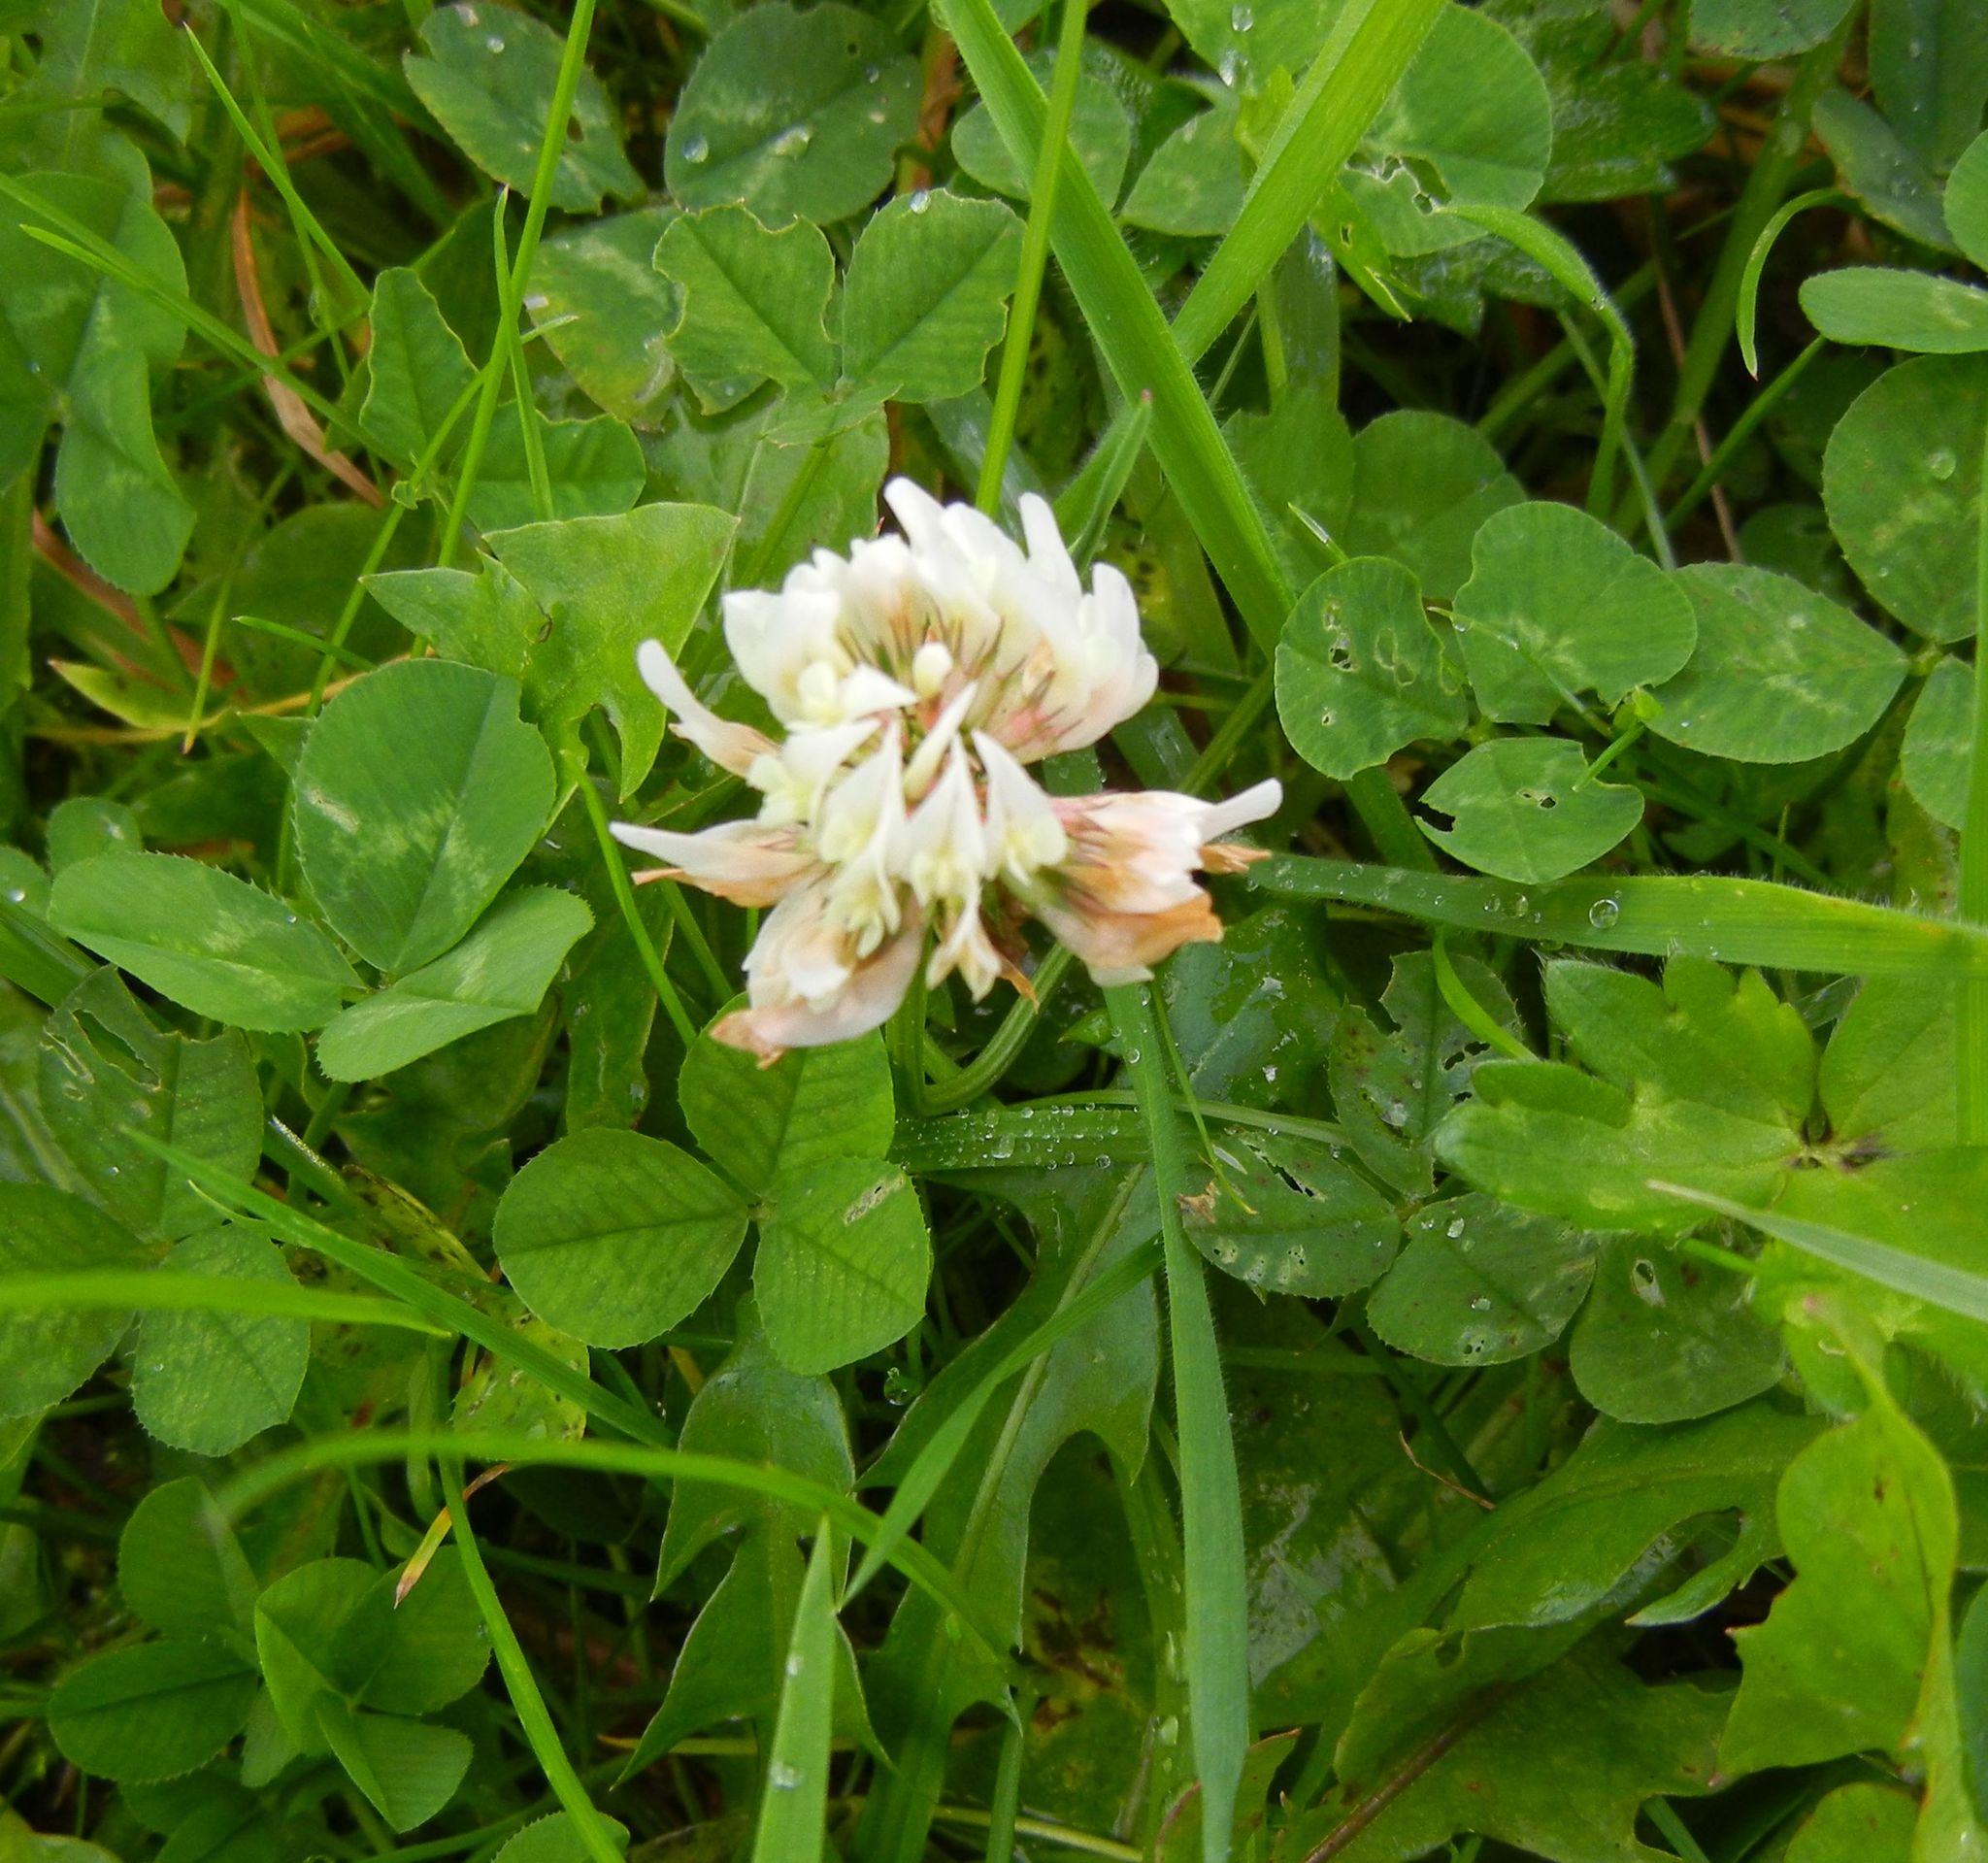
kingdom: Plantae
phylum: Tracheophyta
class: Magnoliopsida
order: Fabales
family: Fabaceae
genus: Trifolium
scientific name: Trifolium repens
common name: White clover
